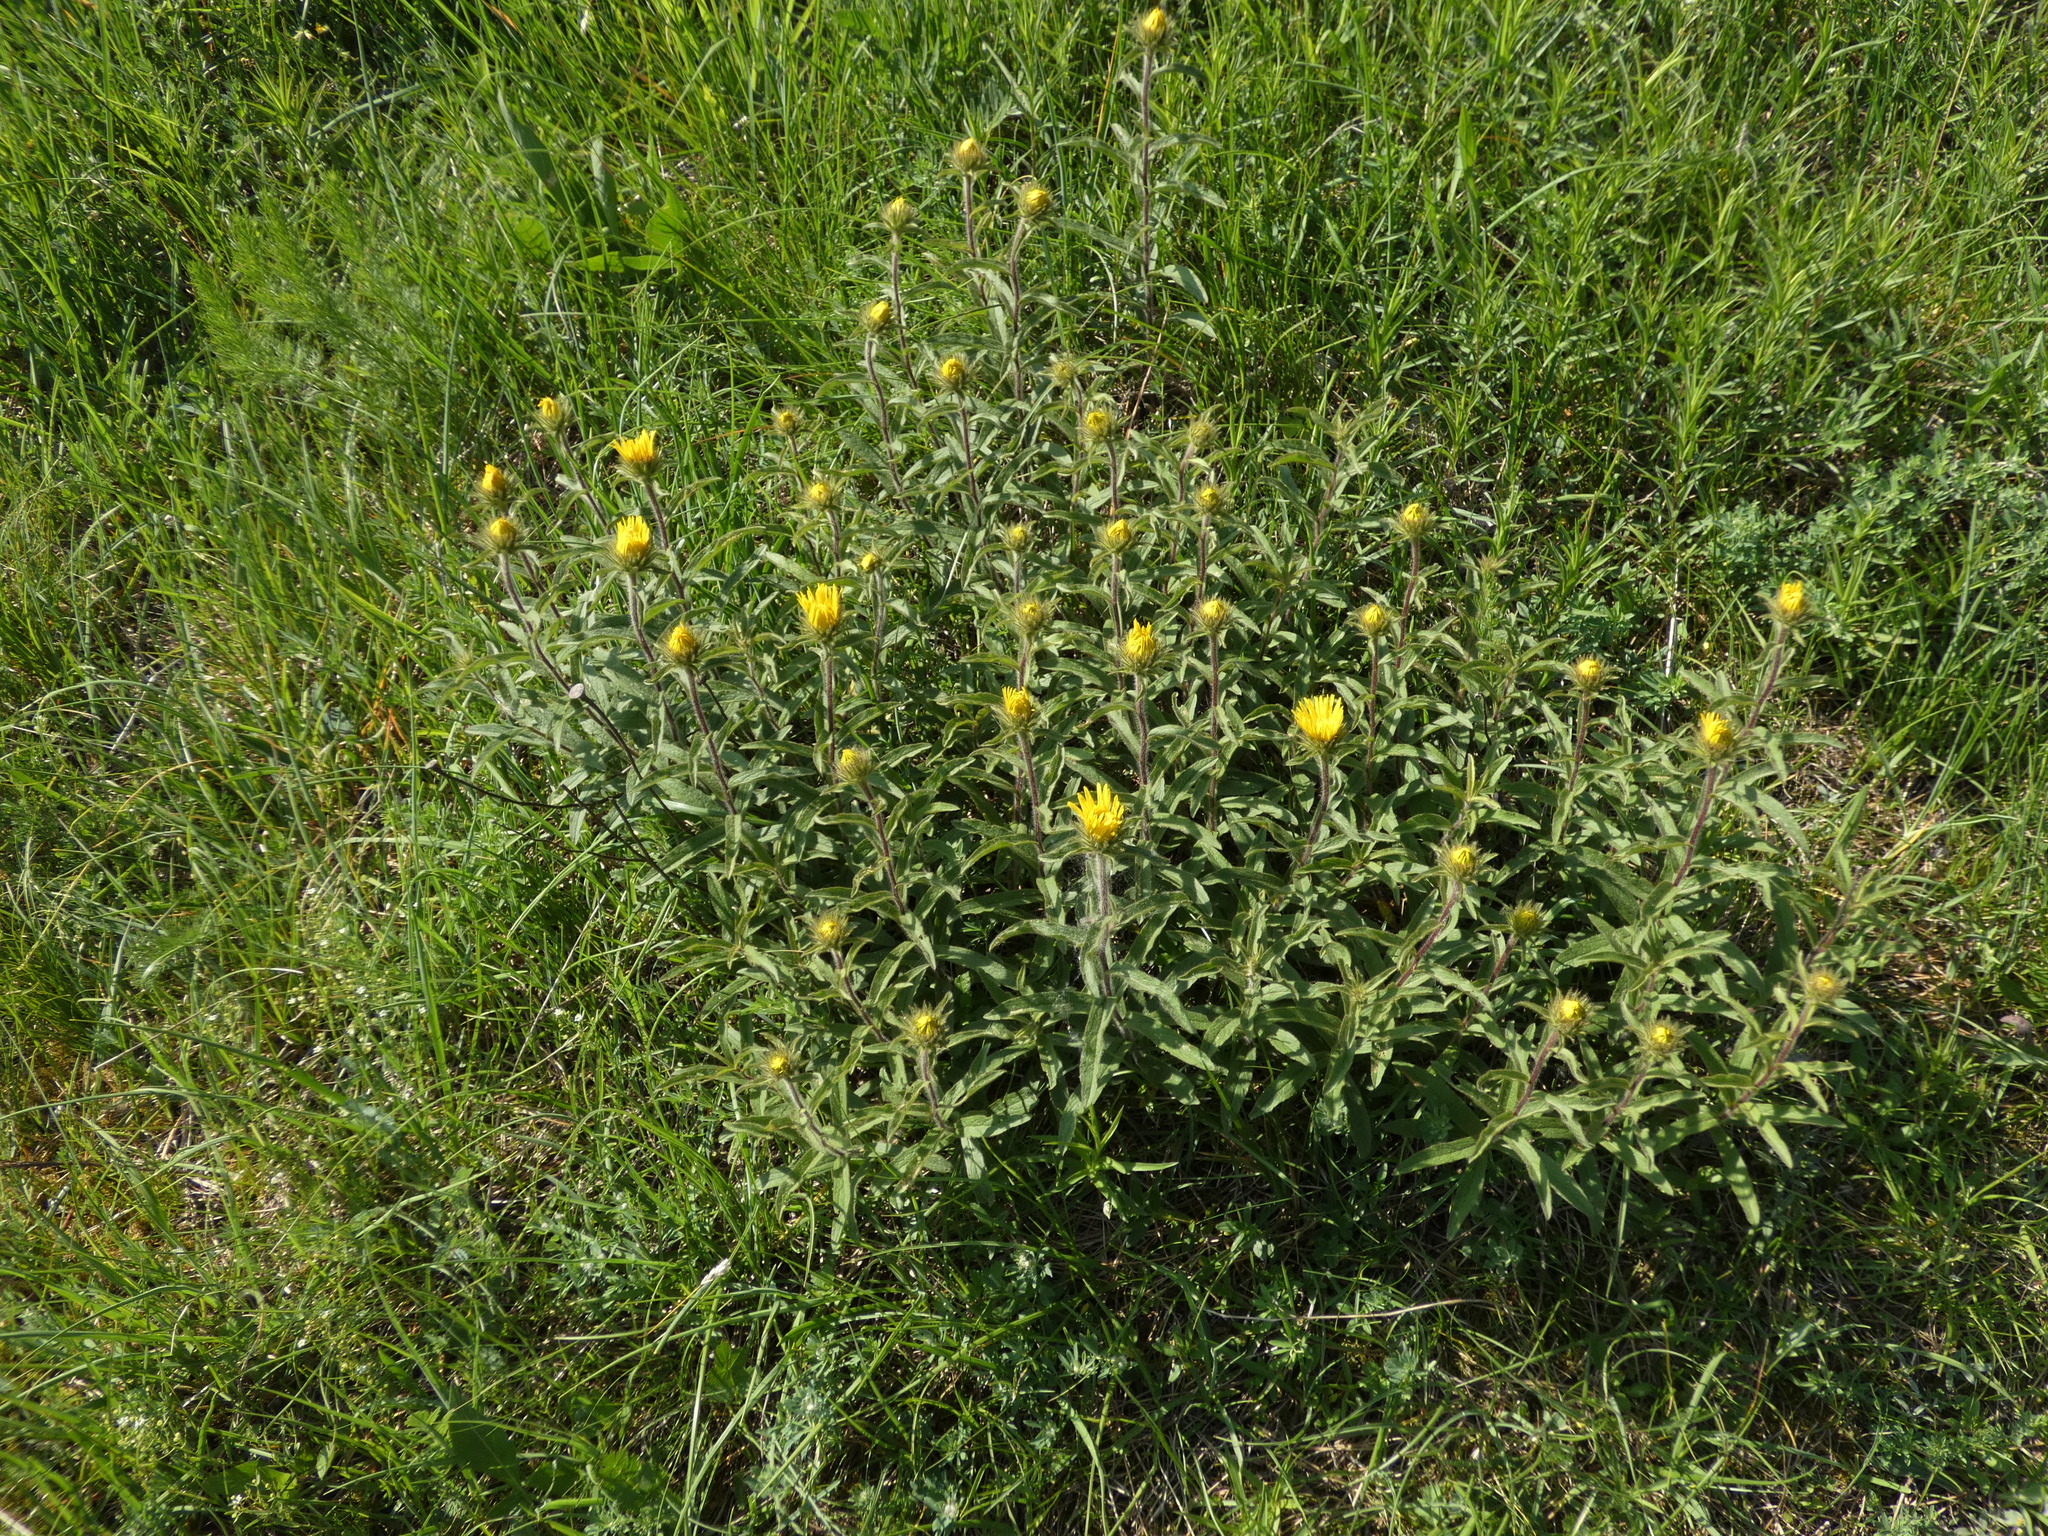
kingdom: Plantae
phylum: Tracheophyta
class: Magnoliopsida
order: Asterales
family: Asteraceae
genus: Pentanema
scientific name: Pentanema hirtum
